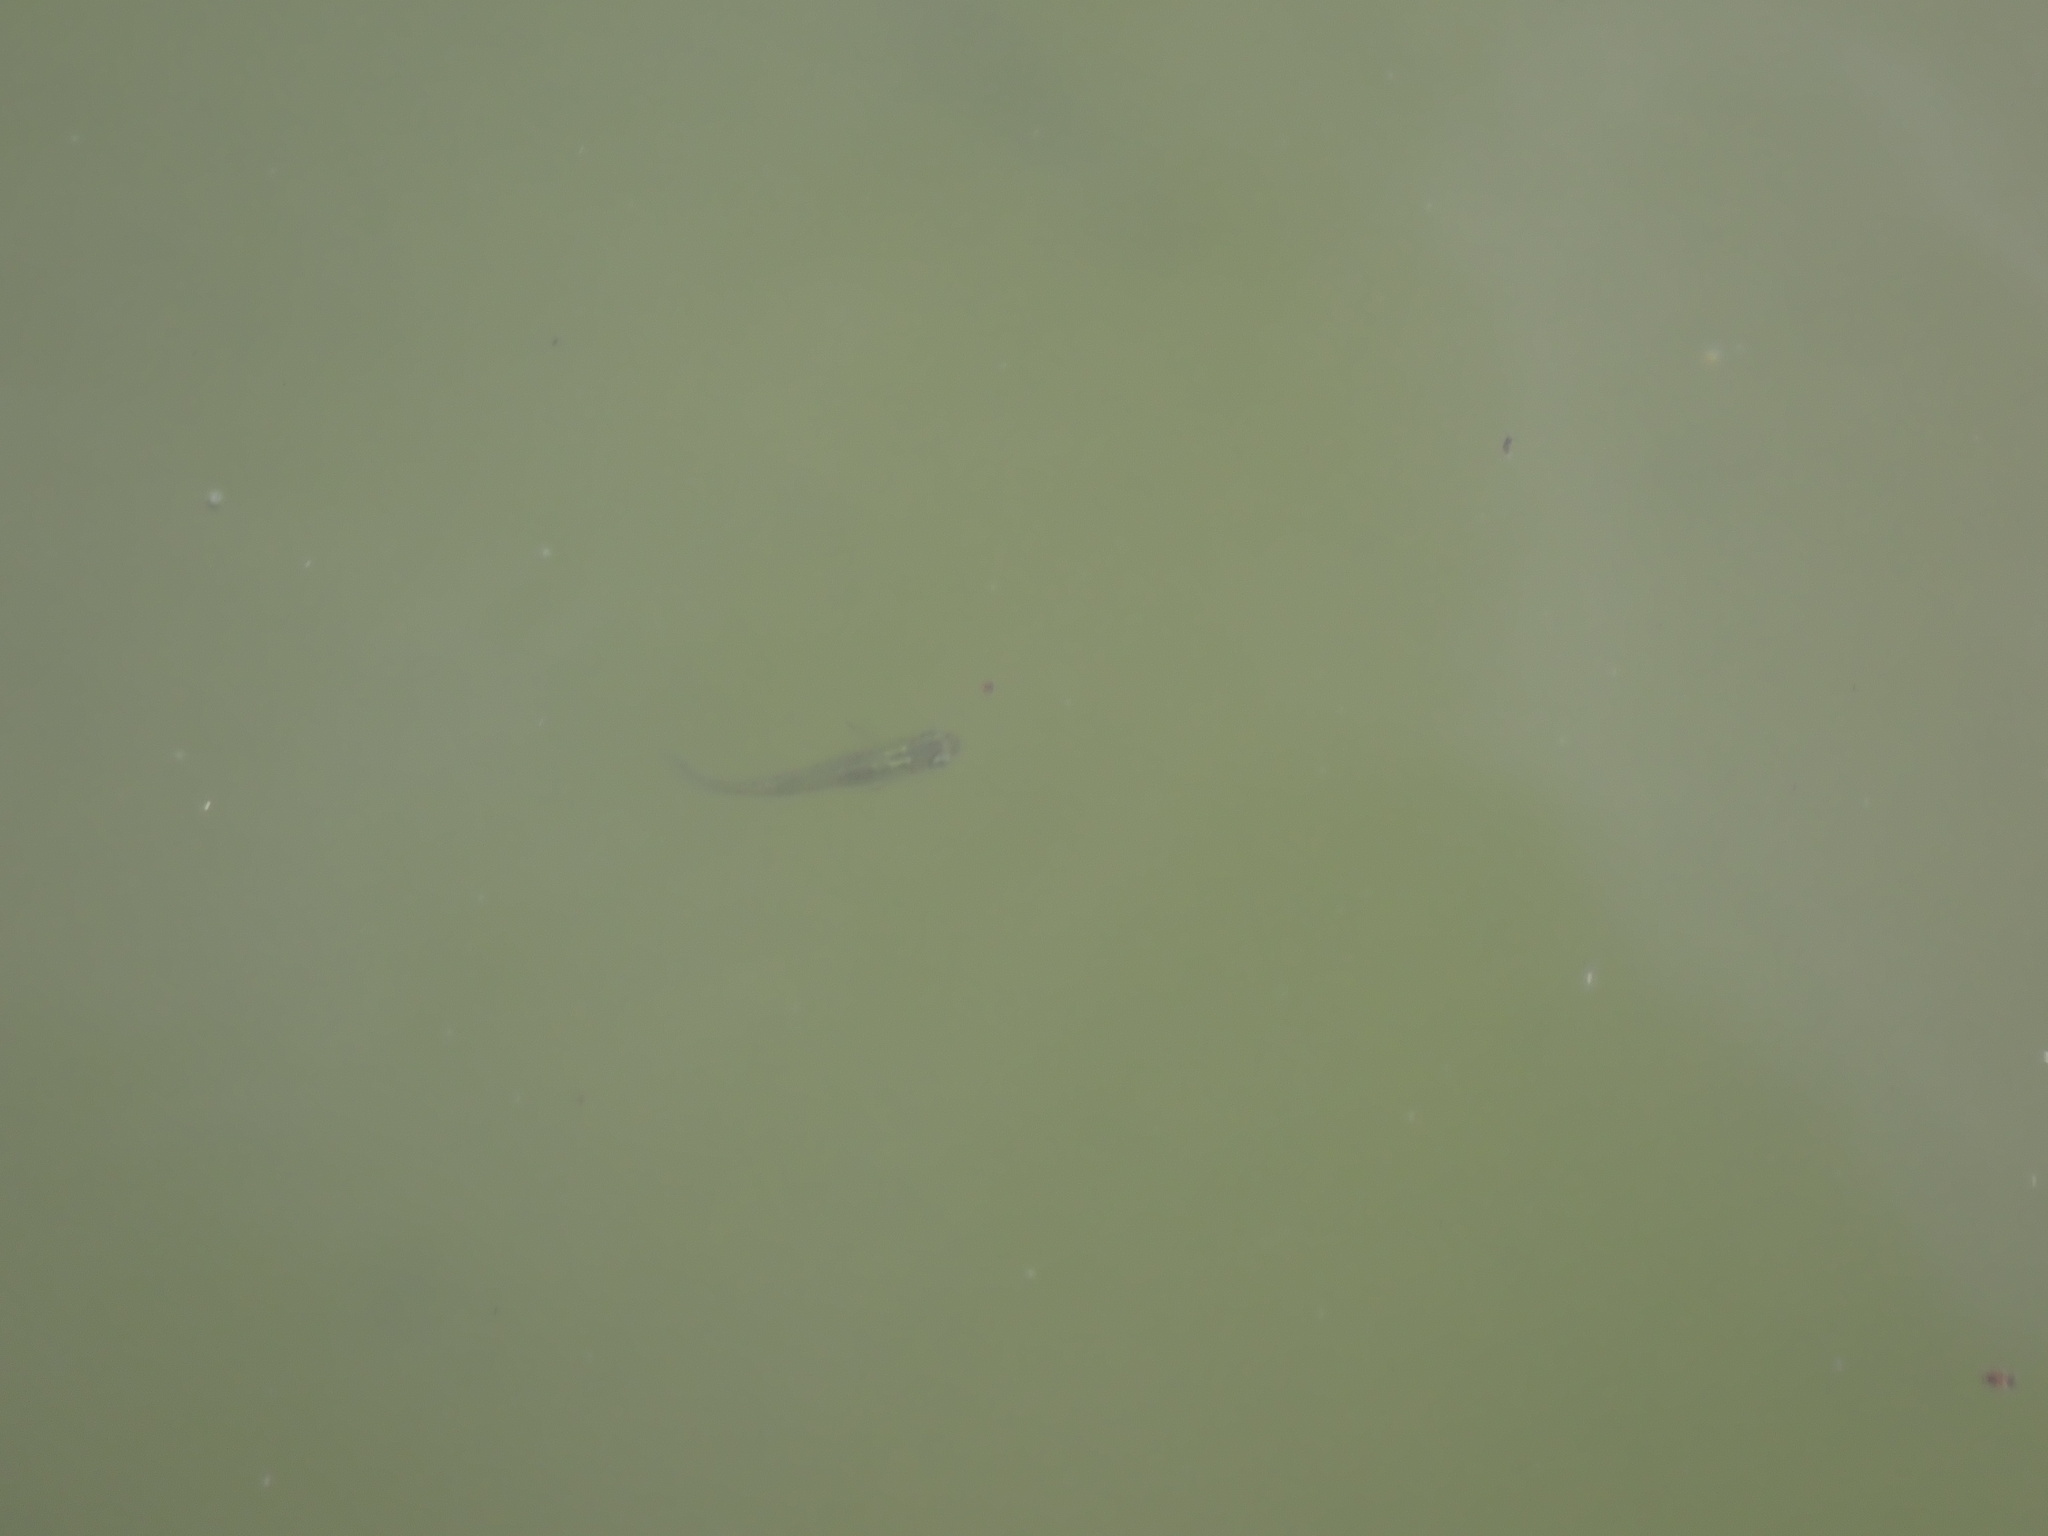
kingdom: Animalia
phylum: Chordata
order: Cyprinodontiformes
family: Poeciliidae
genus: Gambusia
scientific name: Gambusia holbrooki
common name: Eastern mosquitofish
